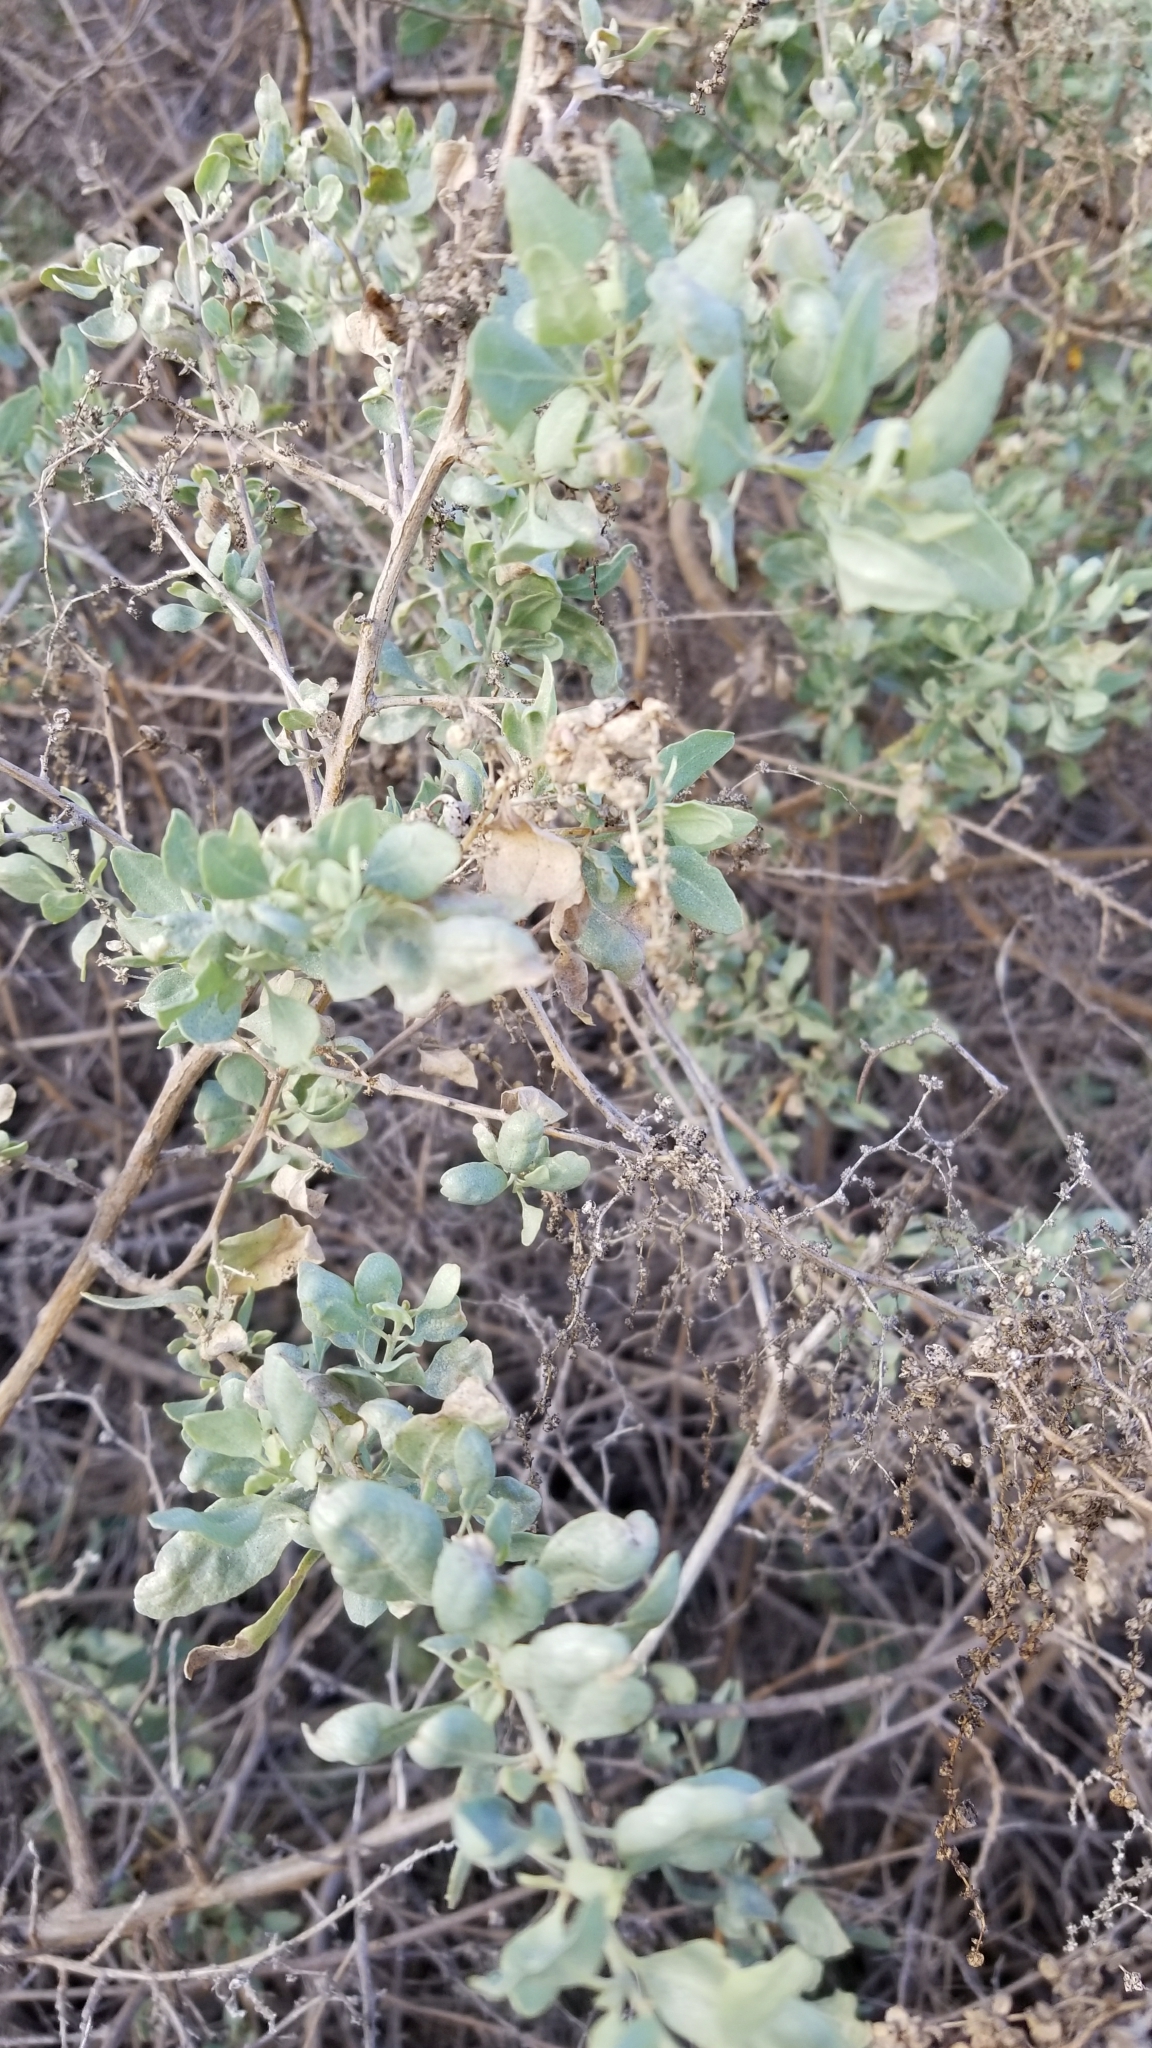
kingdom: Plantae
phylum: Tracheophyta
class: Magnoliopsida
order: Caryophyllales
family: Amaranthaceae
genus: Atriplex
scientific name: Atriplex lentiformis
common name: Big saltbush
